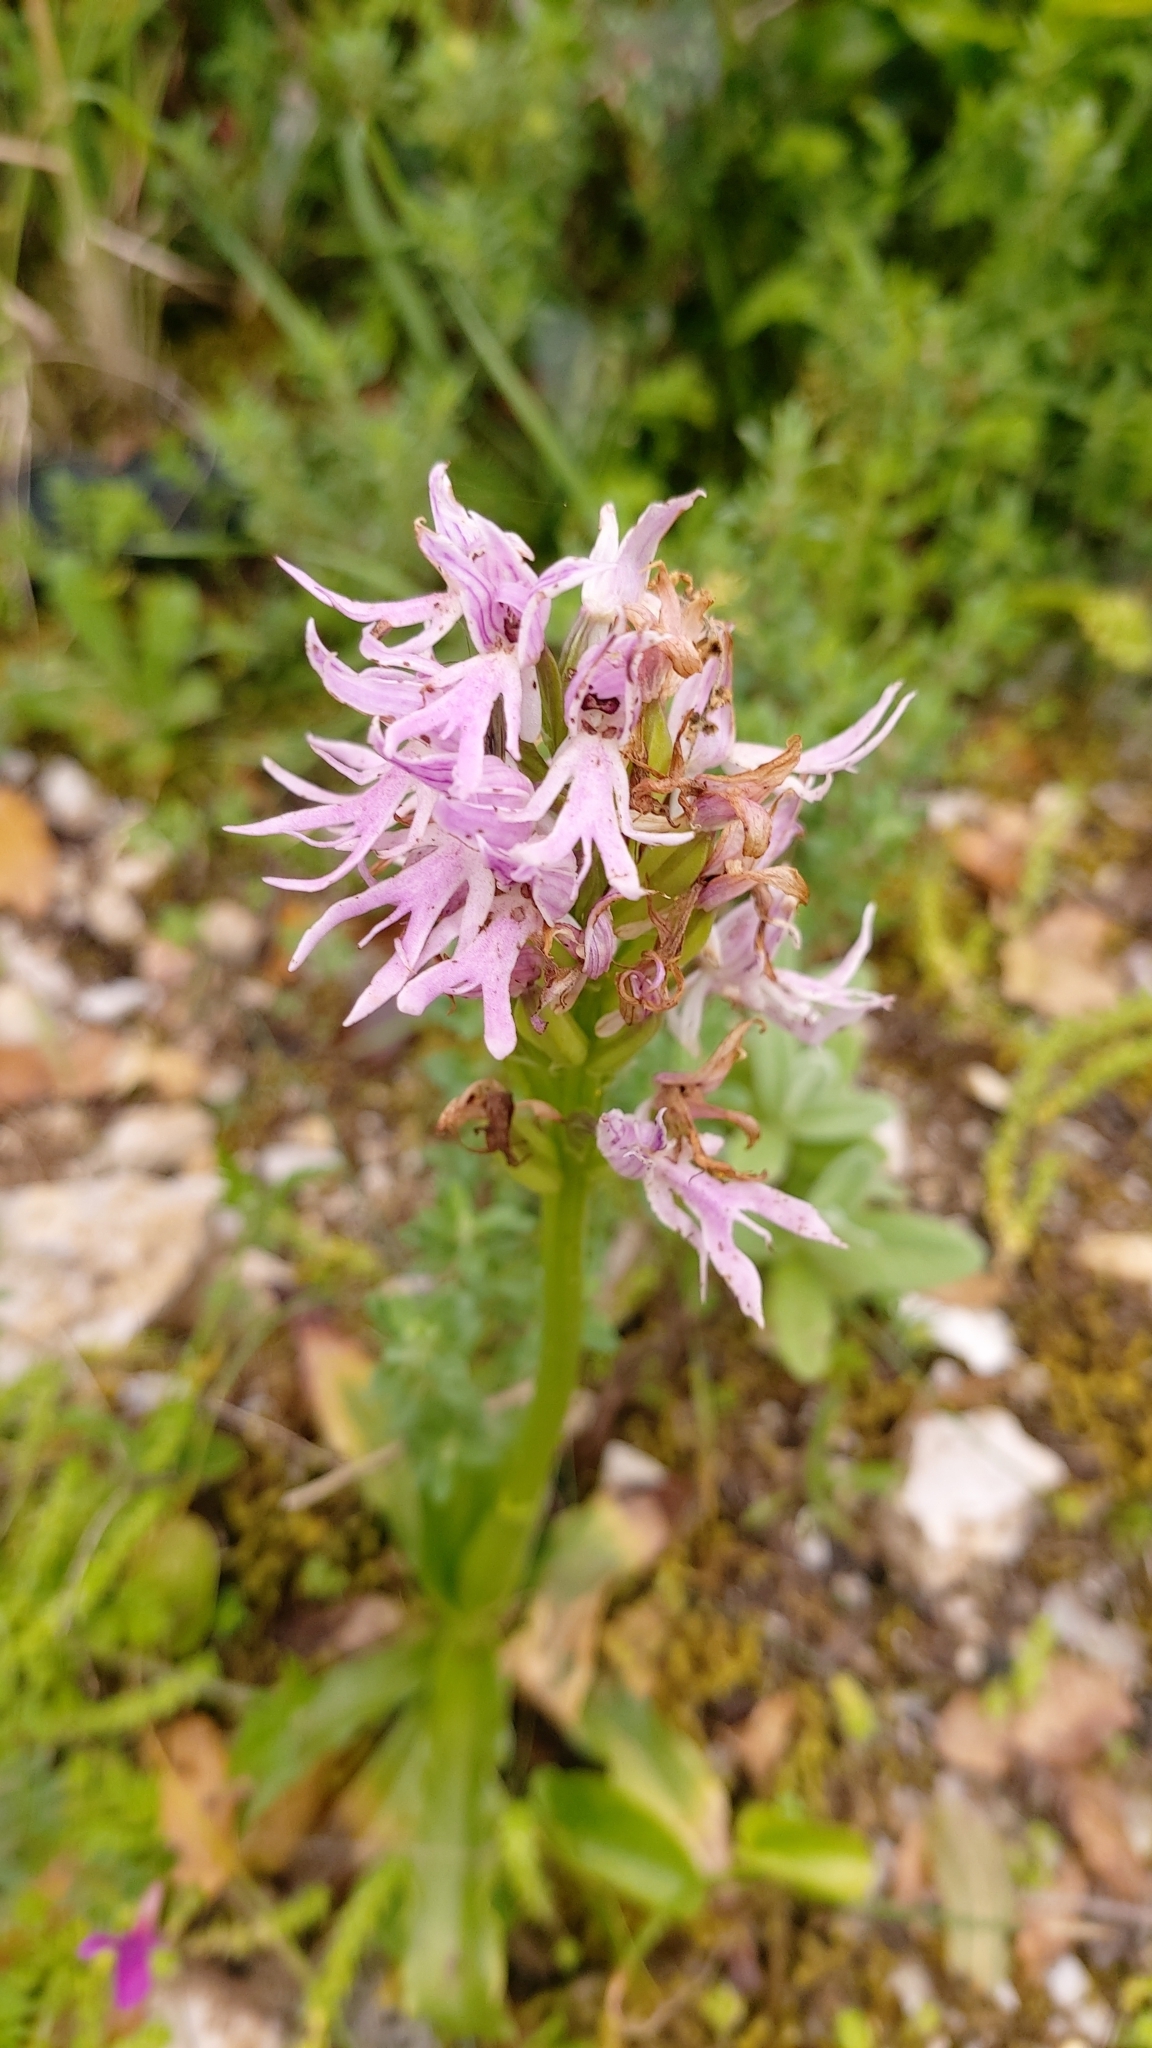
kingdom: Plantae
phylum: Tracheophyta
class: Liliopsida
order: Asparagales
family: Orchidaceae
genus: Orchis
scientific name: Orchis italica
